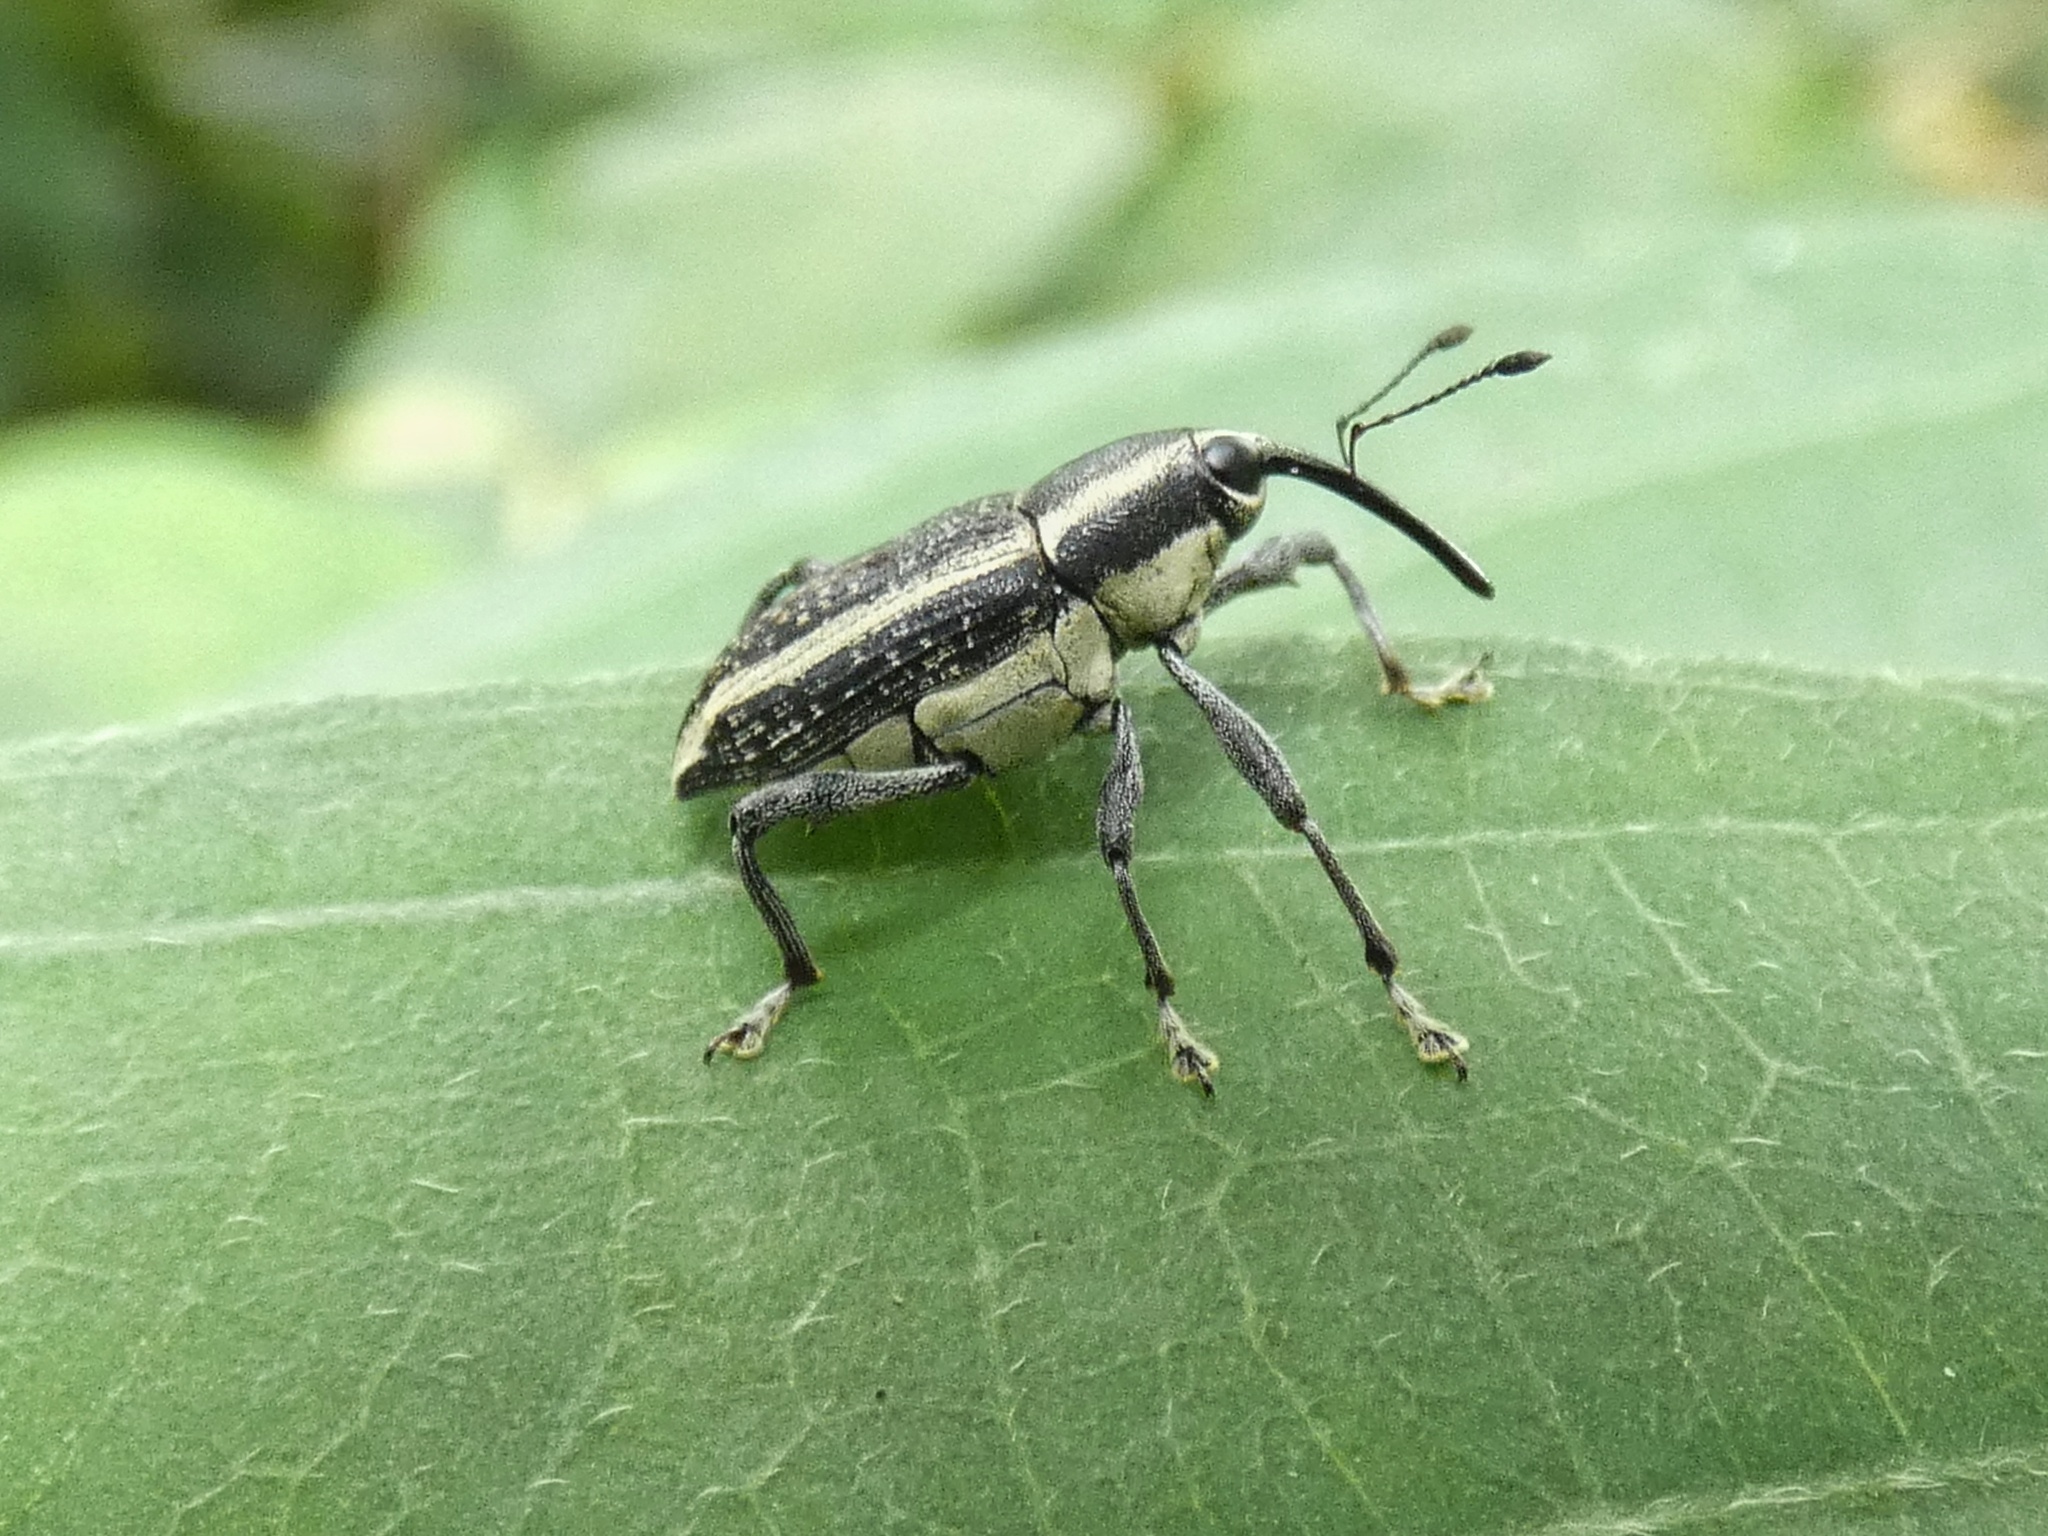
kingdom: Animalia
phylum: Arthropoda
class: Insecta
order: Coleoptera
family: Curculionidae
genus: Ambates
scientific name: Ambates speciosus
